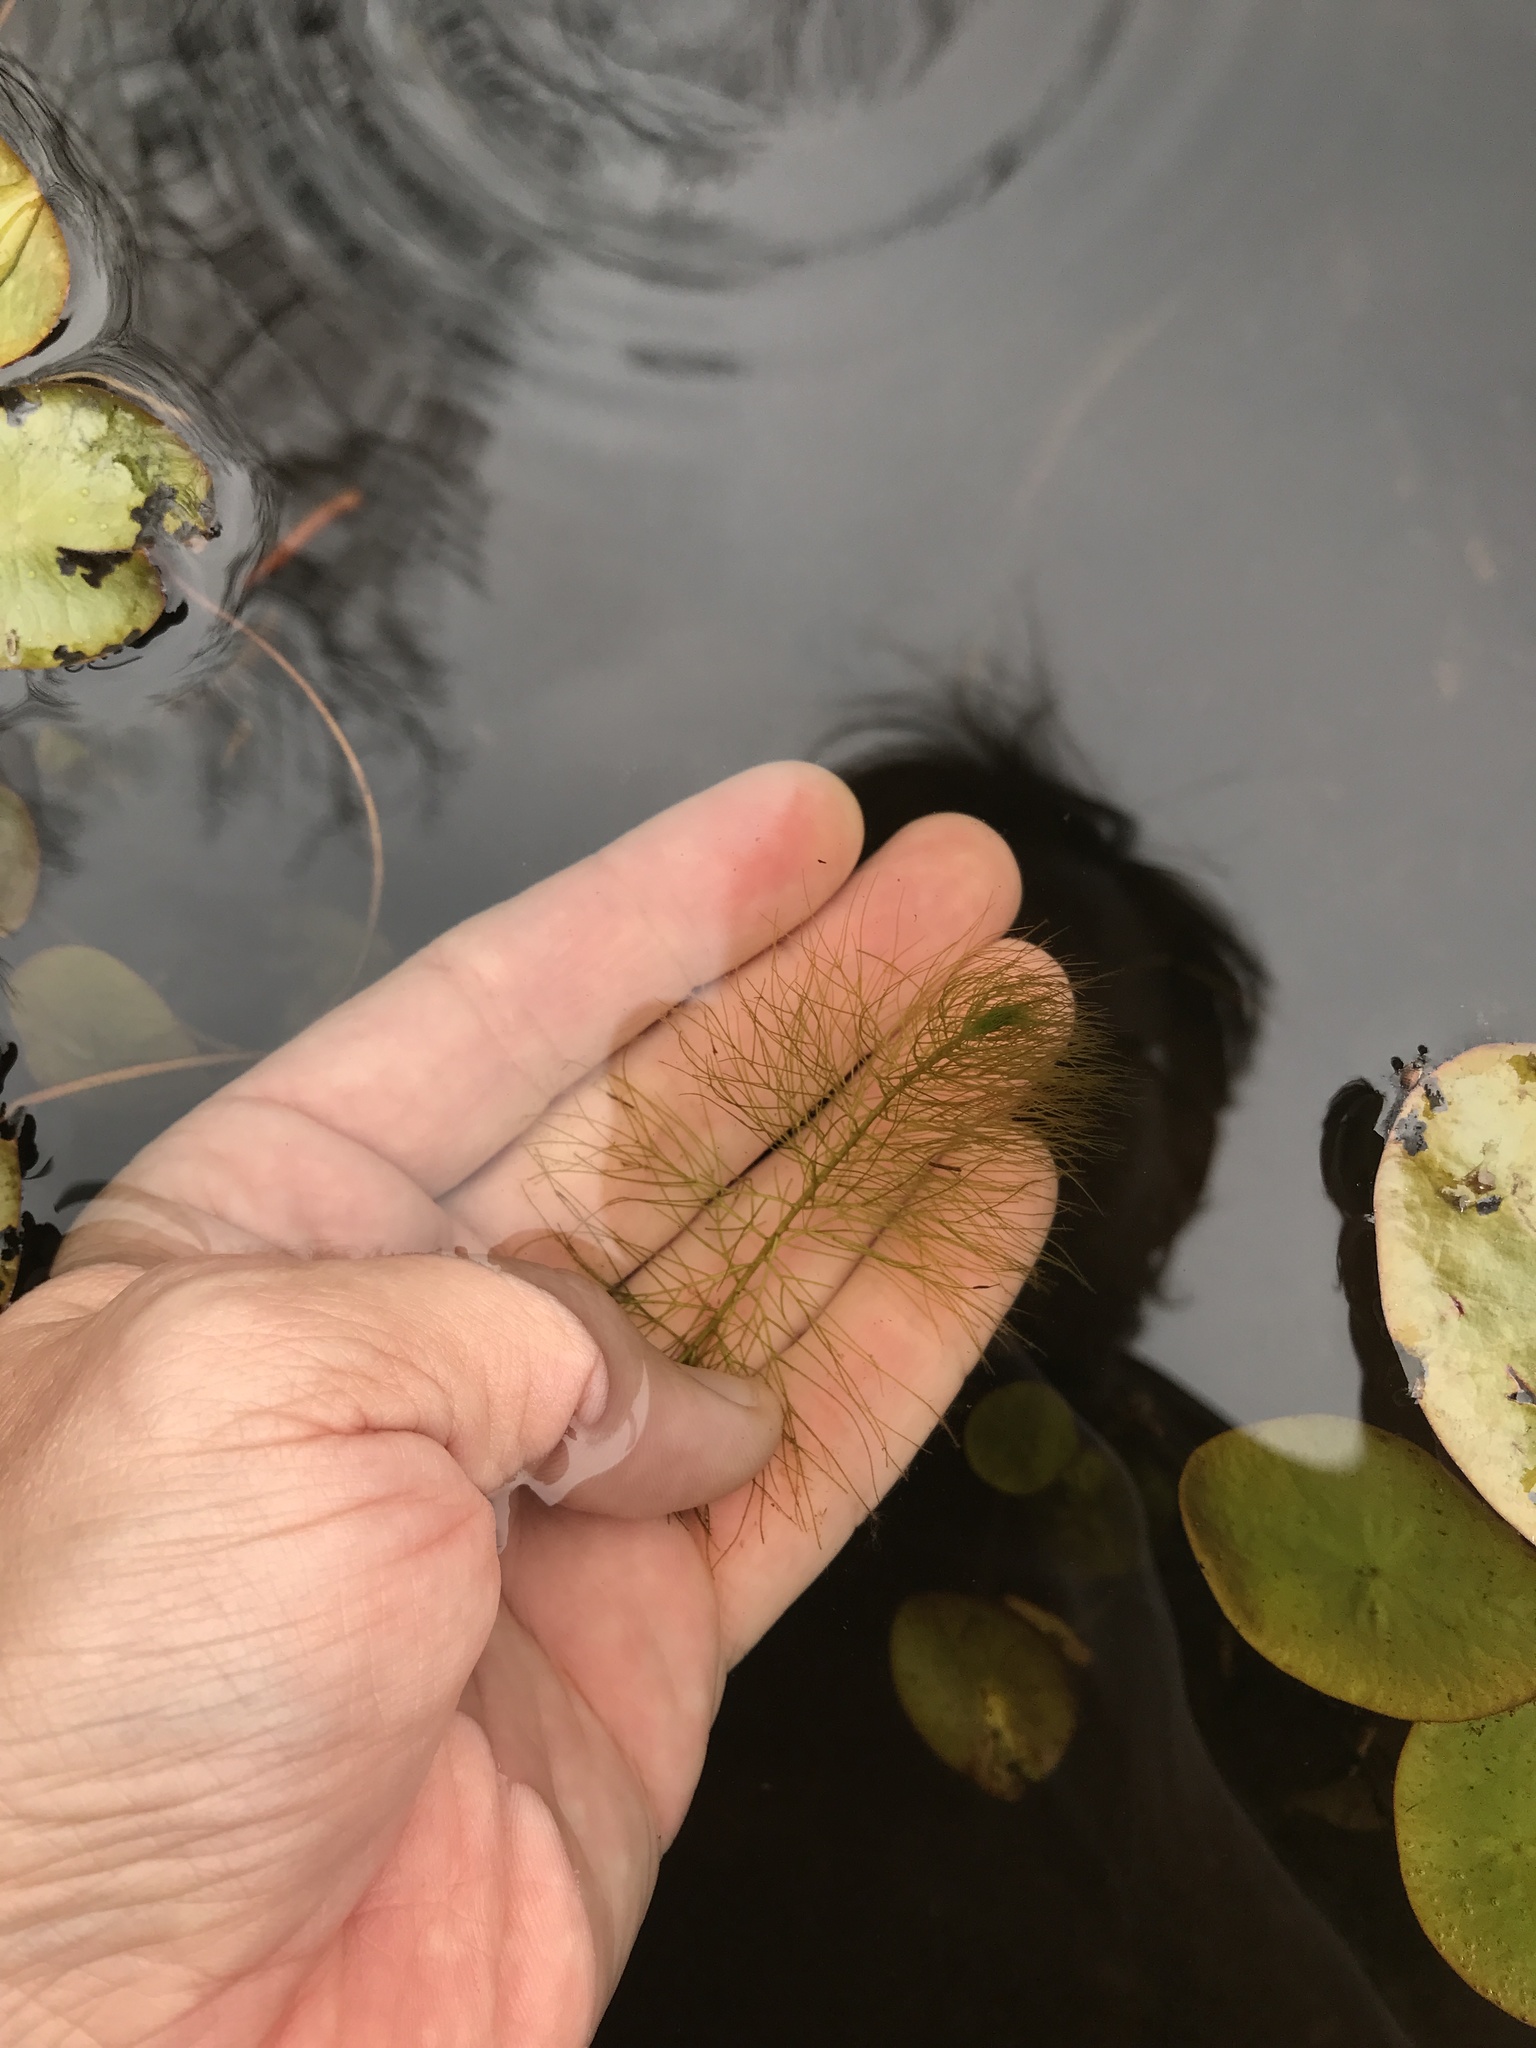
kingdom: Plantae
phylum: Tracheophyta
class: Magnoliopsida
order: Saxifragales
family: Haloragaceae
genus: Myriophyllum
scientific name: Myriophyllum humile
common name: Low water-milfoil
